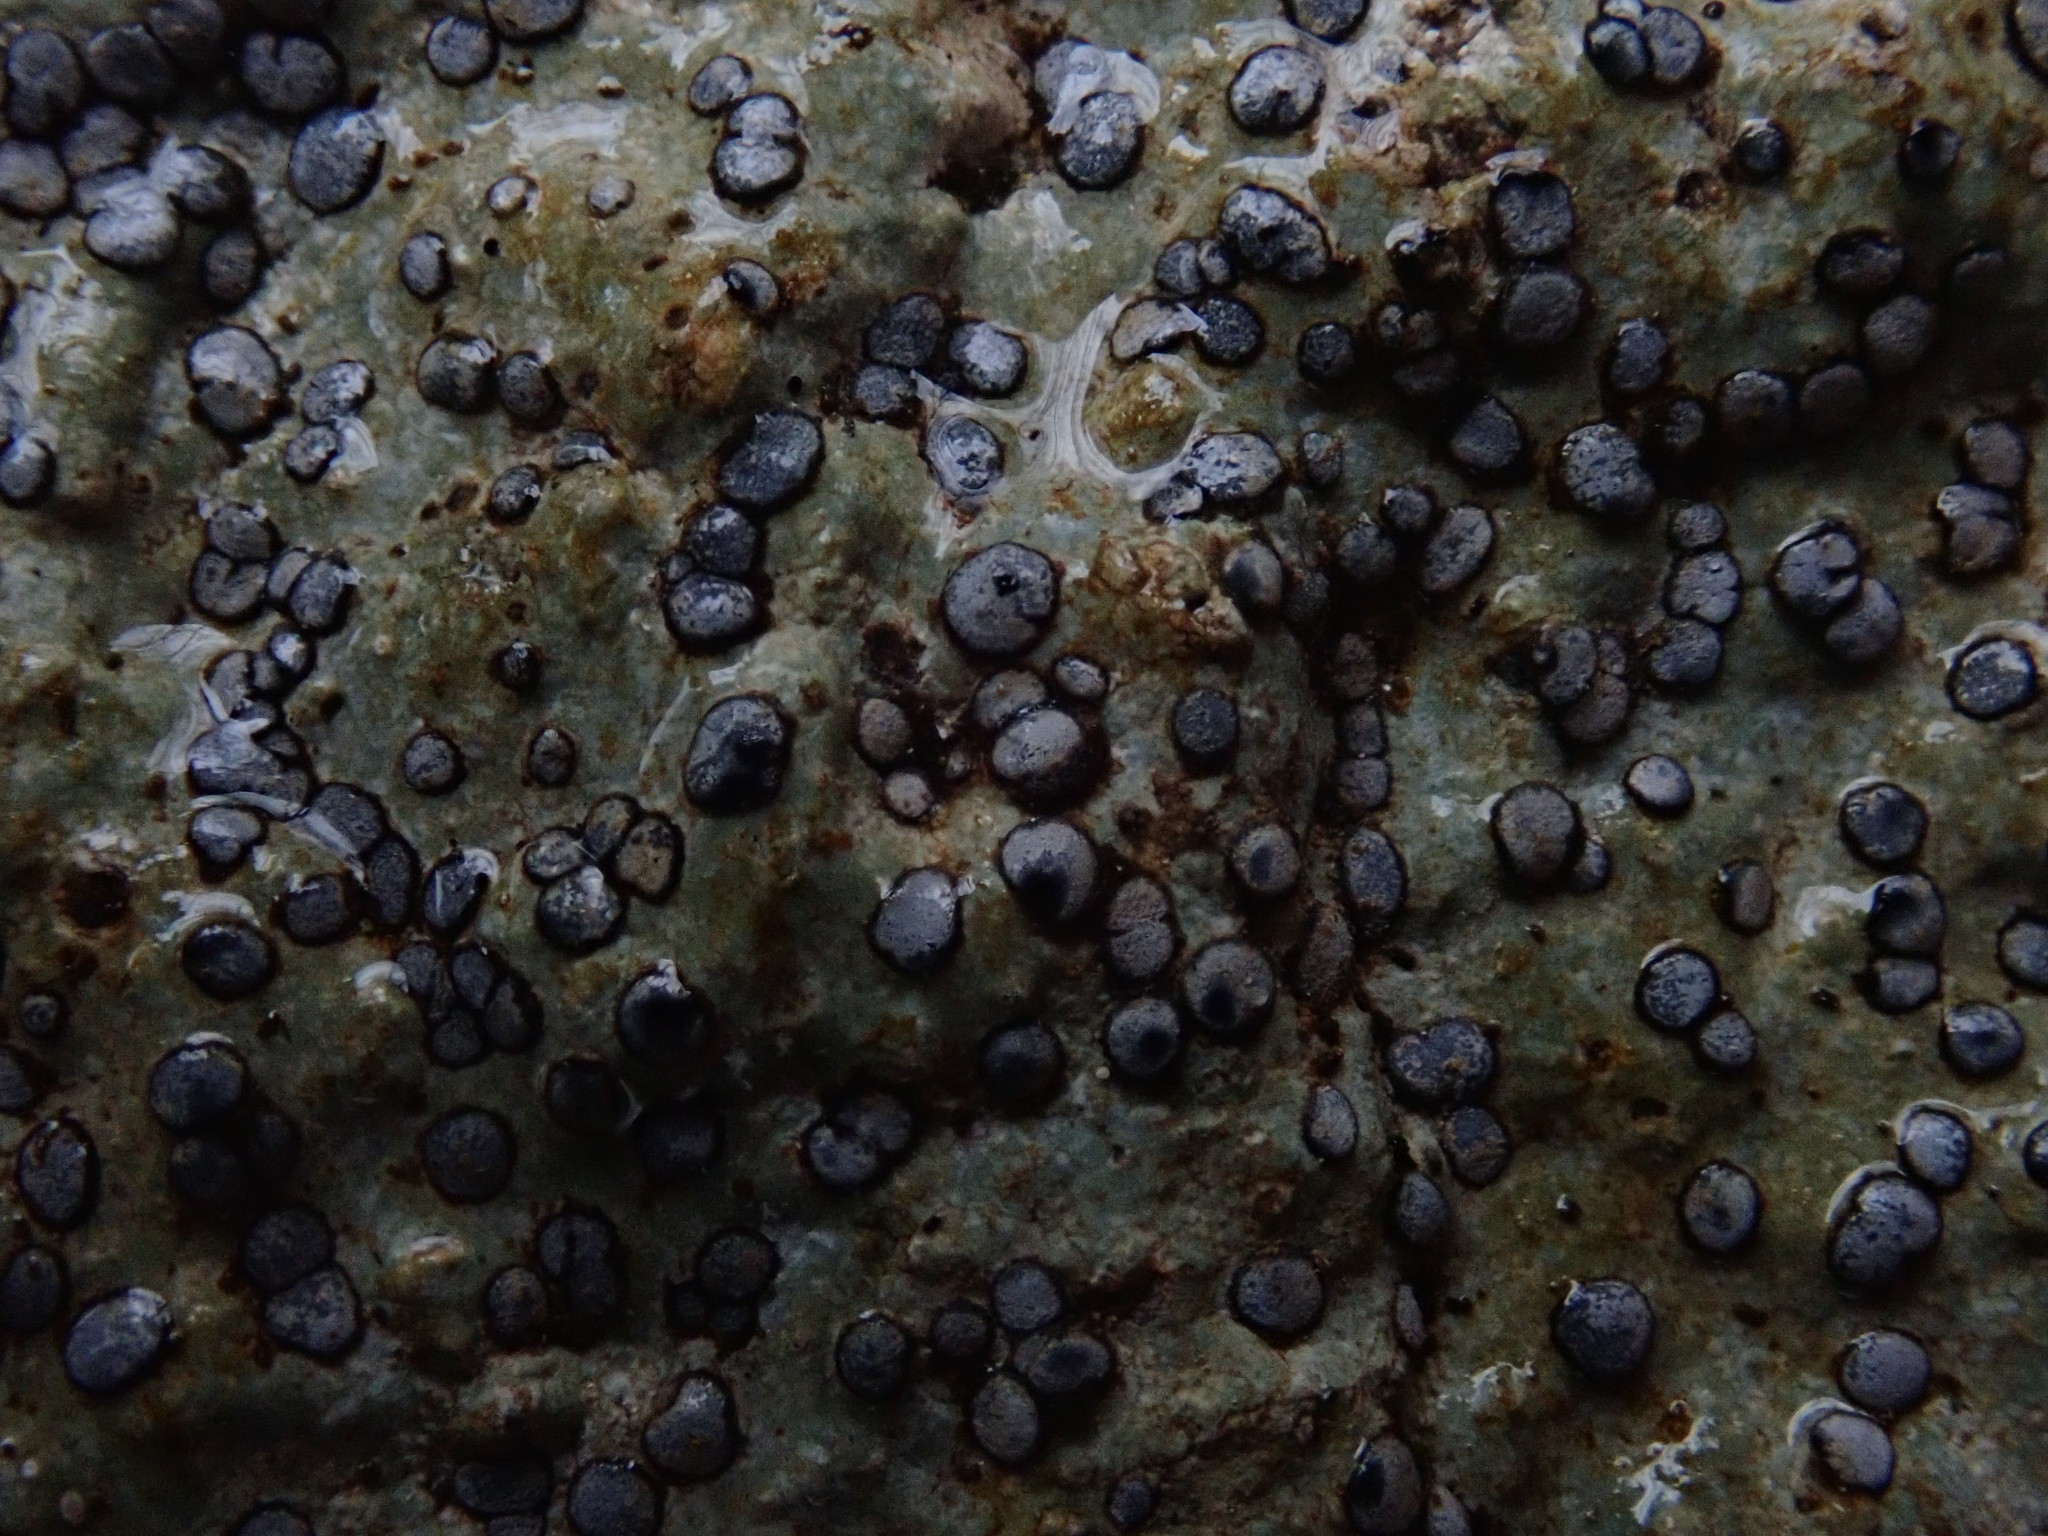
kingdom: Fungi
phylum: Ascomycota
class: Lecanoromycetes
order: Lecideales
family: Lecideaceae
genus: Porpidia
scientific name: Porpidia albocaerulescens
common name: Smokey-eyed boulder lichen
